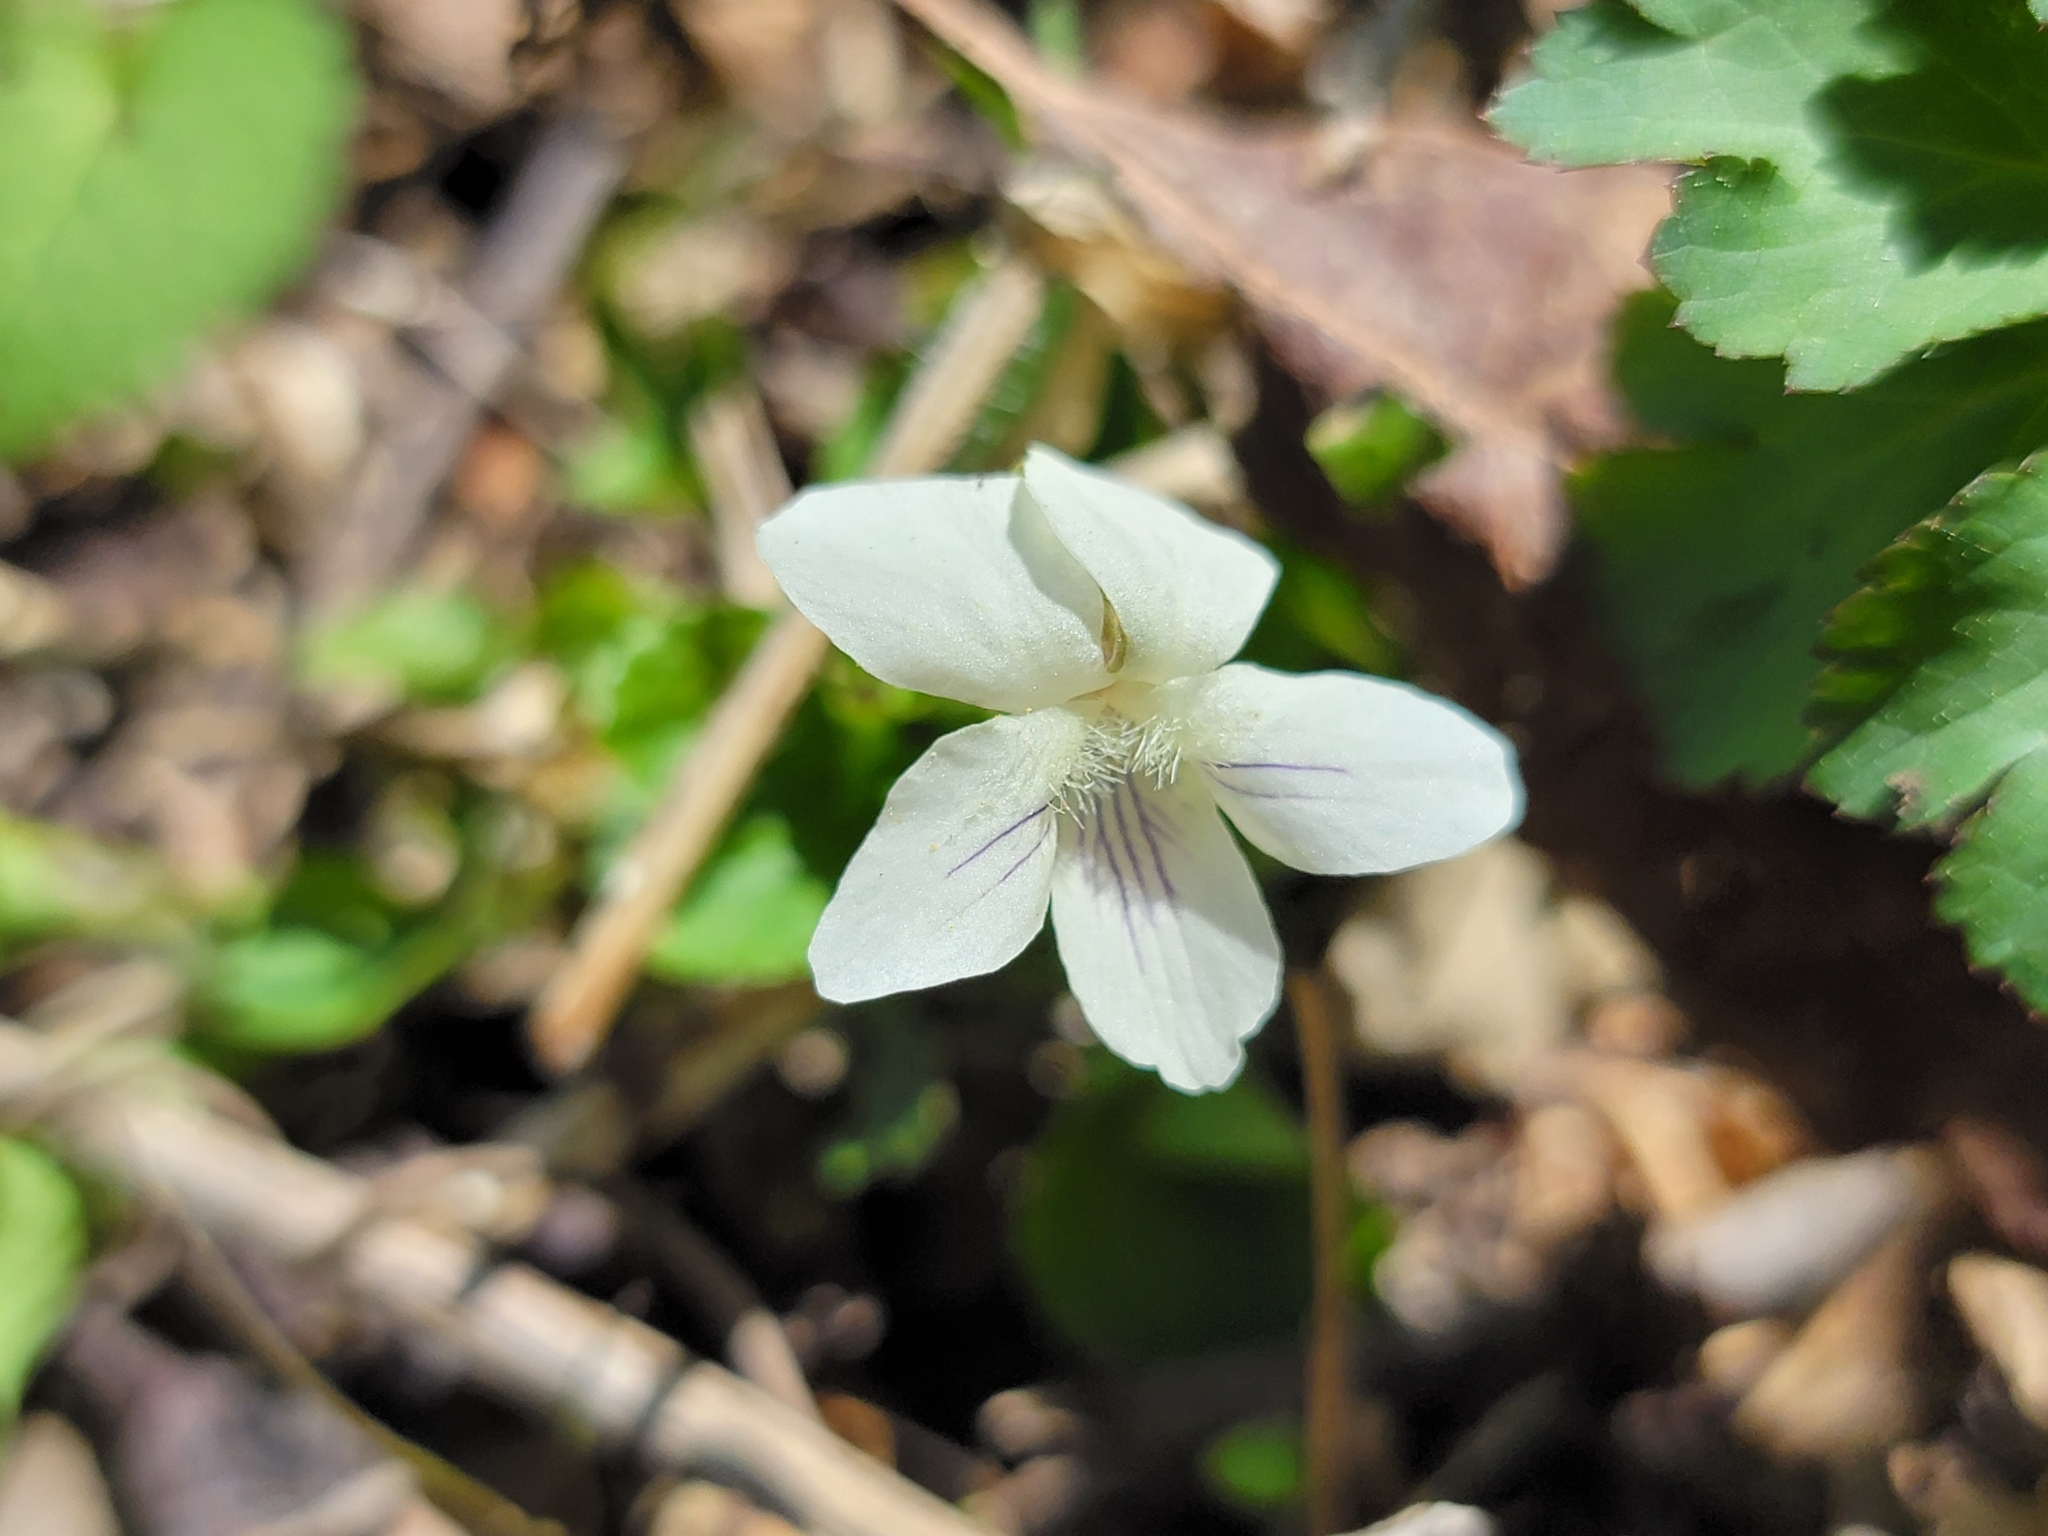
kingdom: Plantae
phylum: Tracheophyta
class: Magnoliopsida
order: Malpighiales
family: Violaceae
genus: Viola
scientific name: Viola striata
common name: Cream violet
